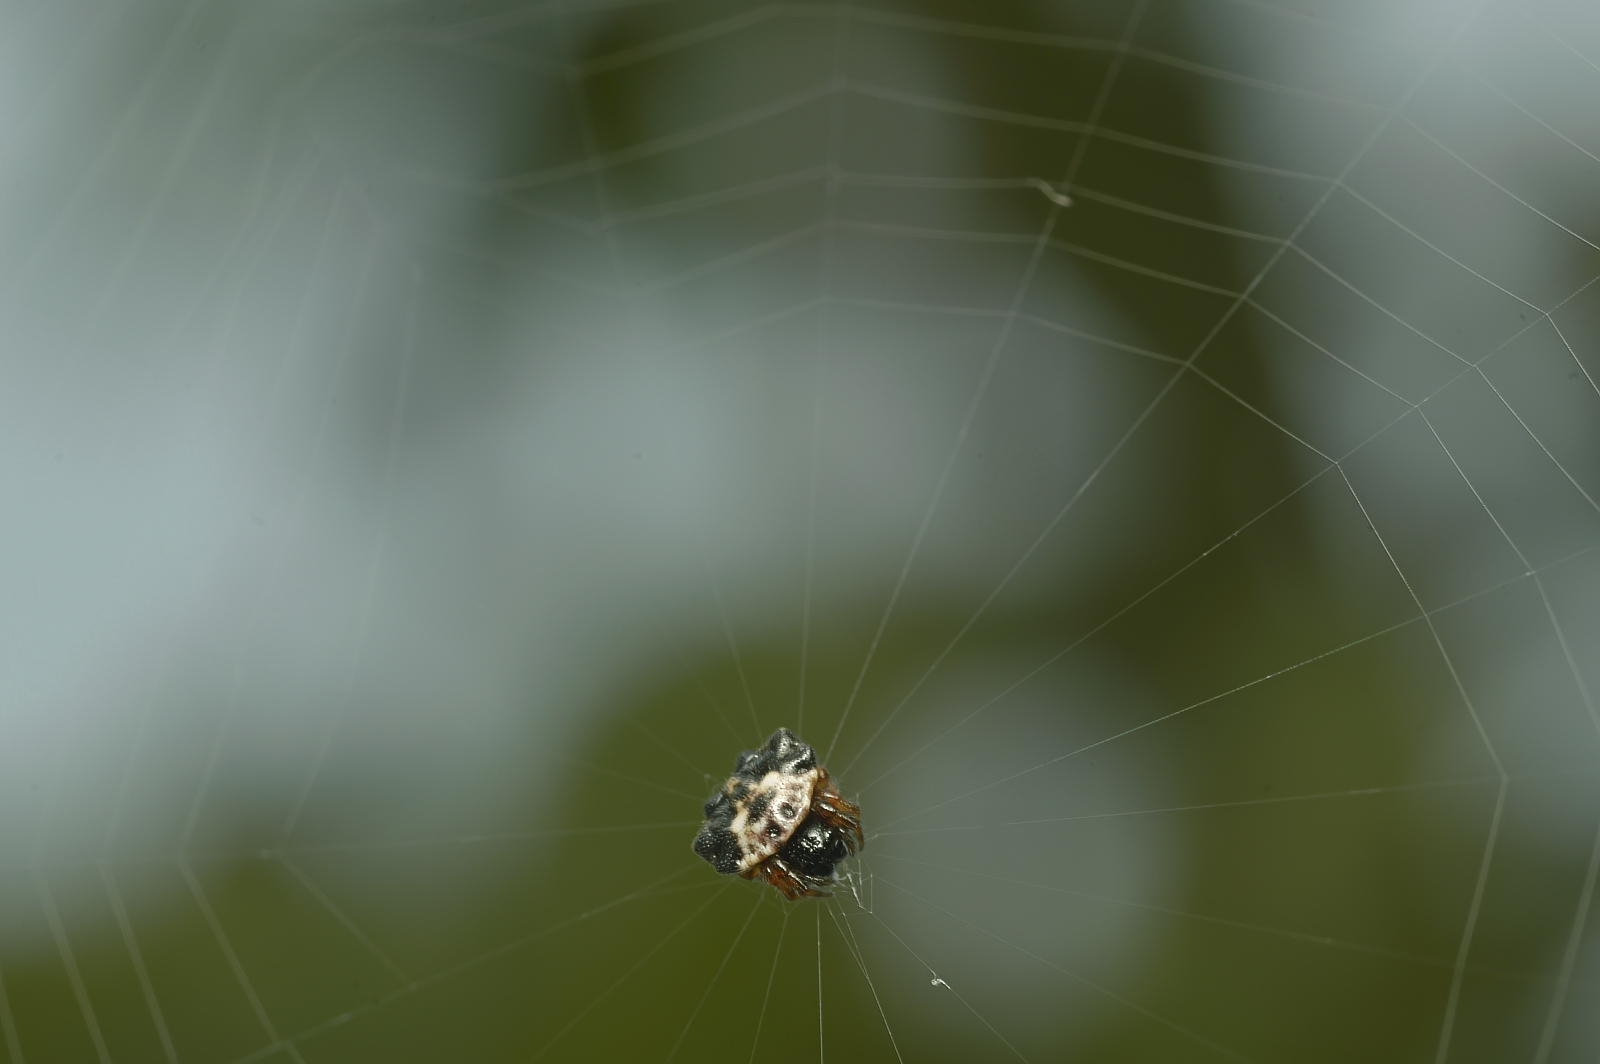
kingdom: Animalia
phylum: Arthropoda
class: Arachnida
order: Araneae
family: Araneidae
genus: Thelacantha
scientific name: Thelacantha brevispina
